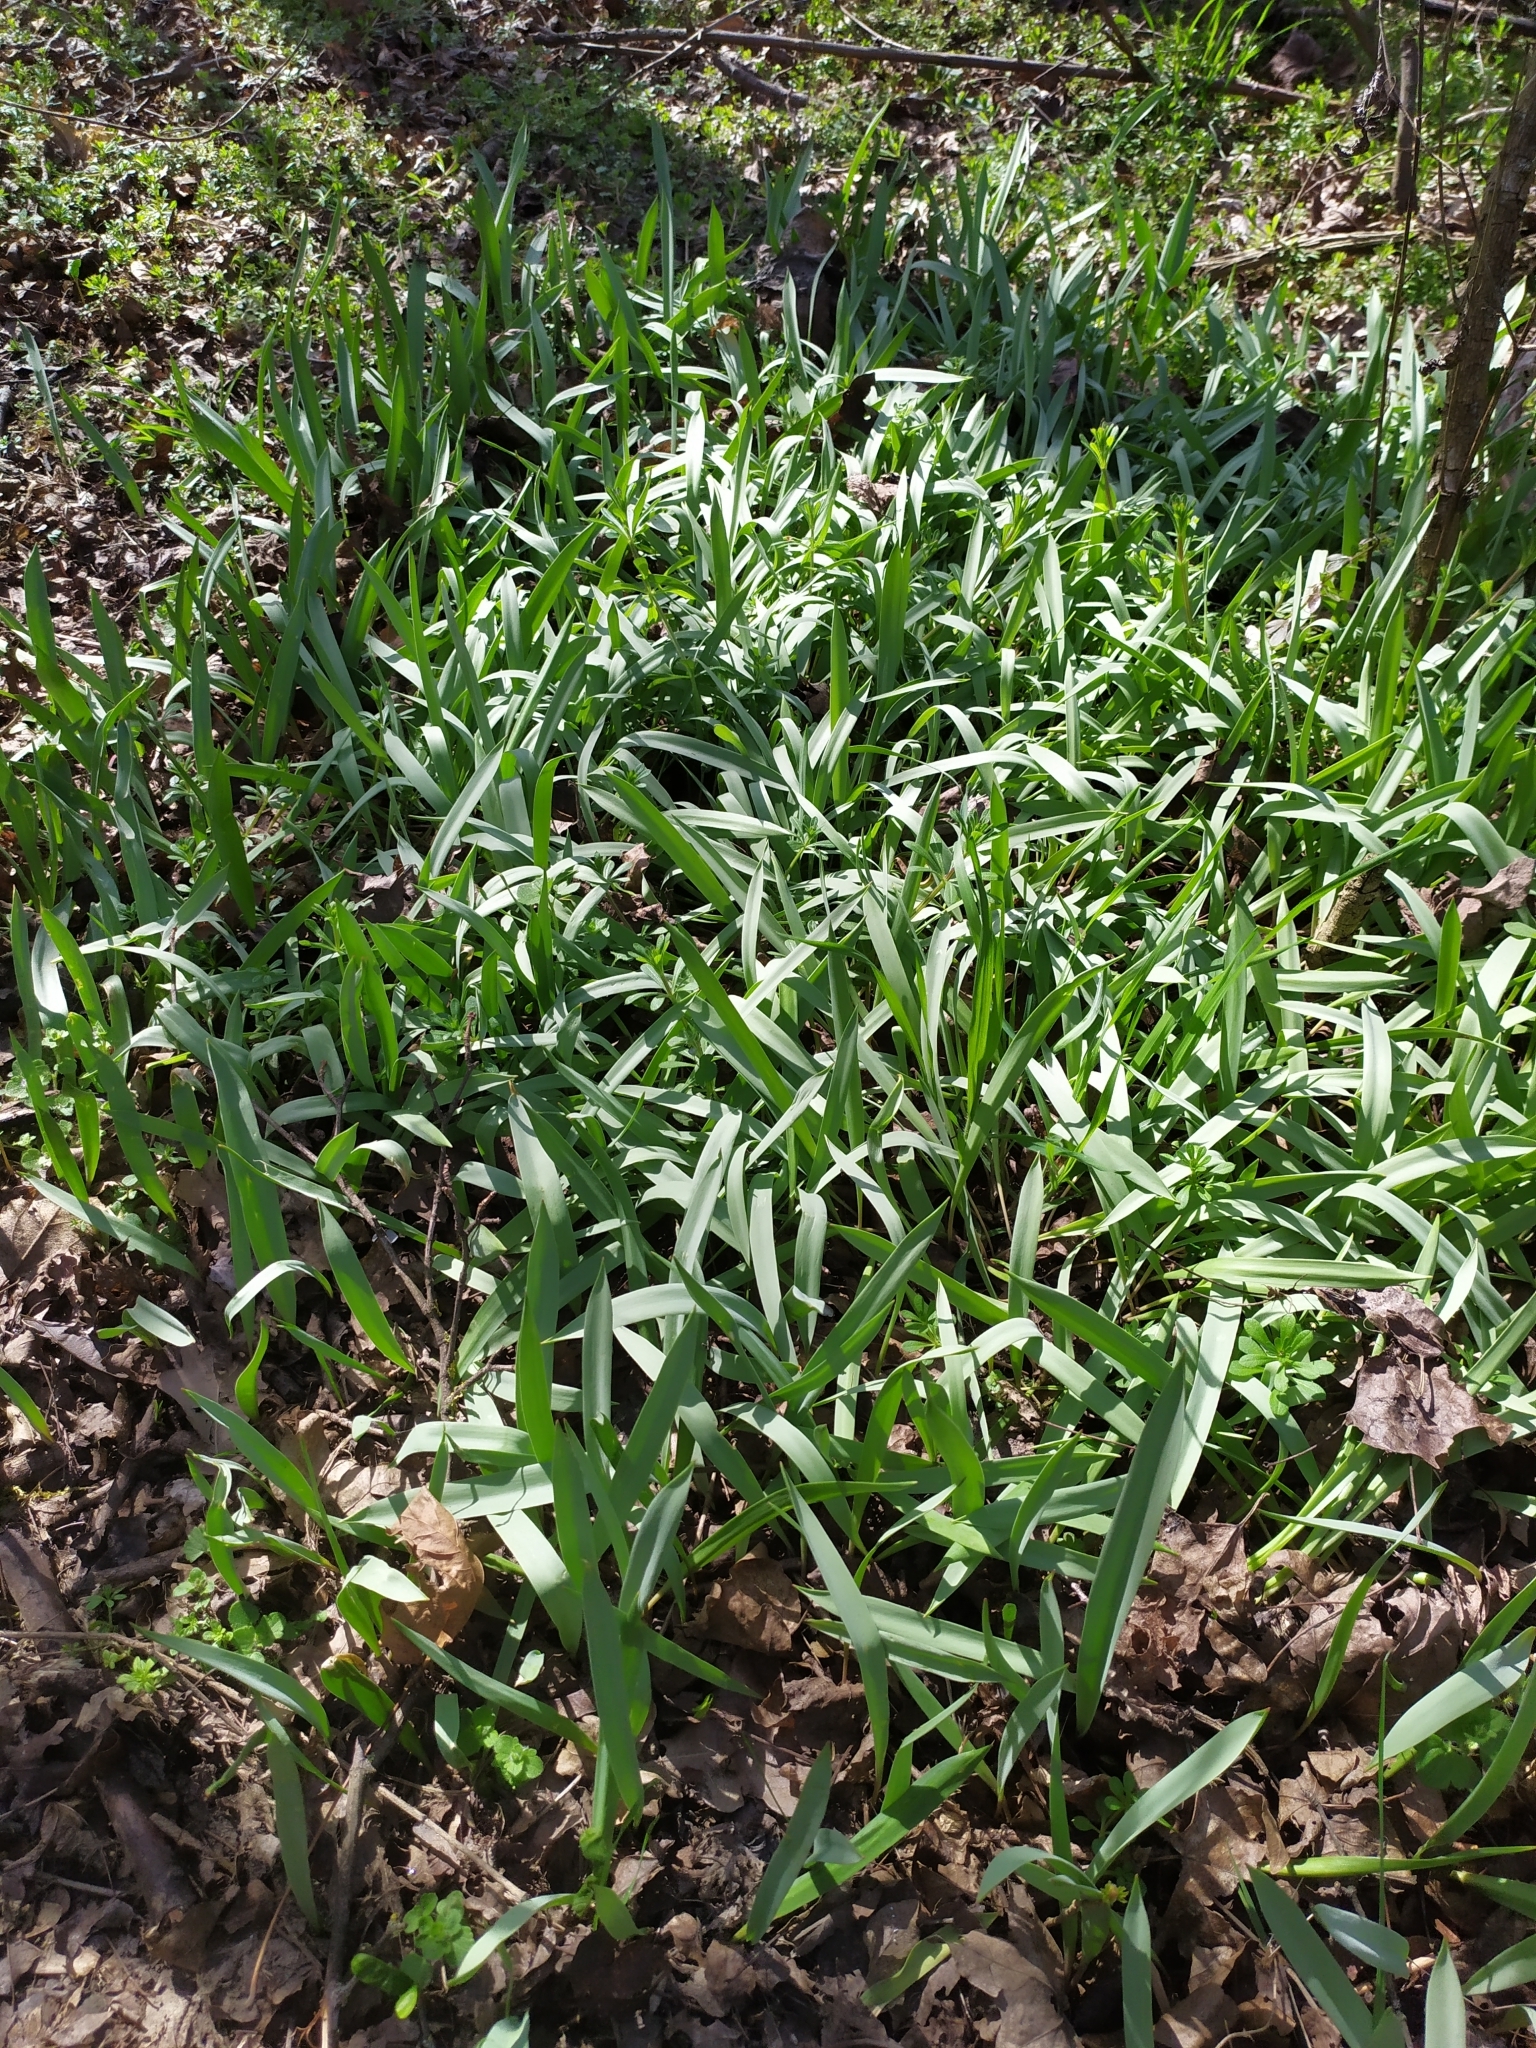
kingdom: Plantae
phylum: Tracheophyta
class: Liliopsida
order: Liliales
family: Liliaceae
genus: Tulipa
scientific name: Tulipa sylvestris
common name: Wild tulip
